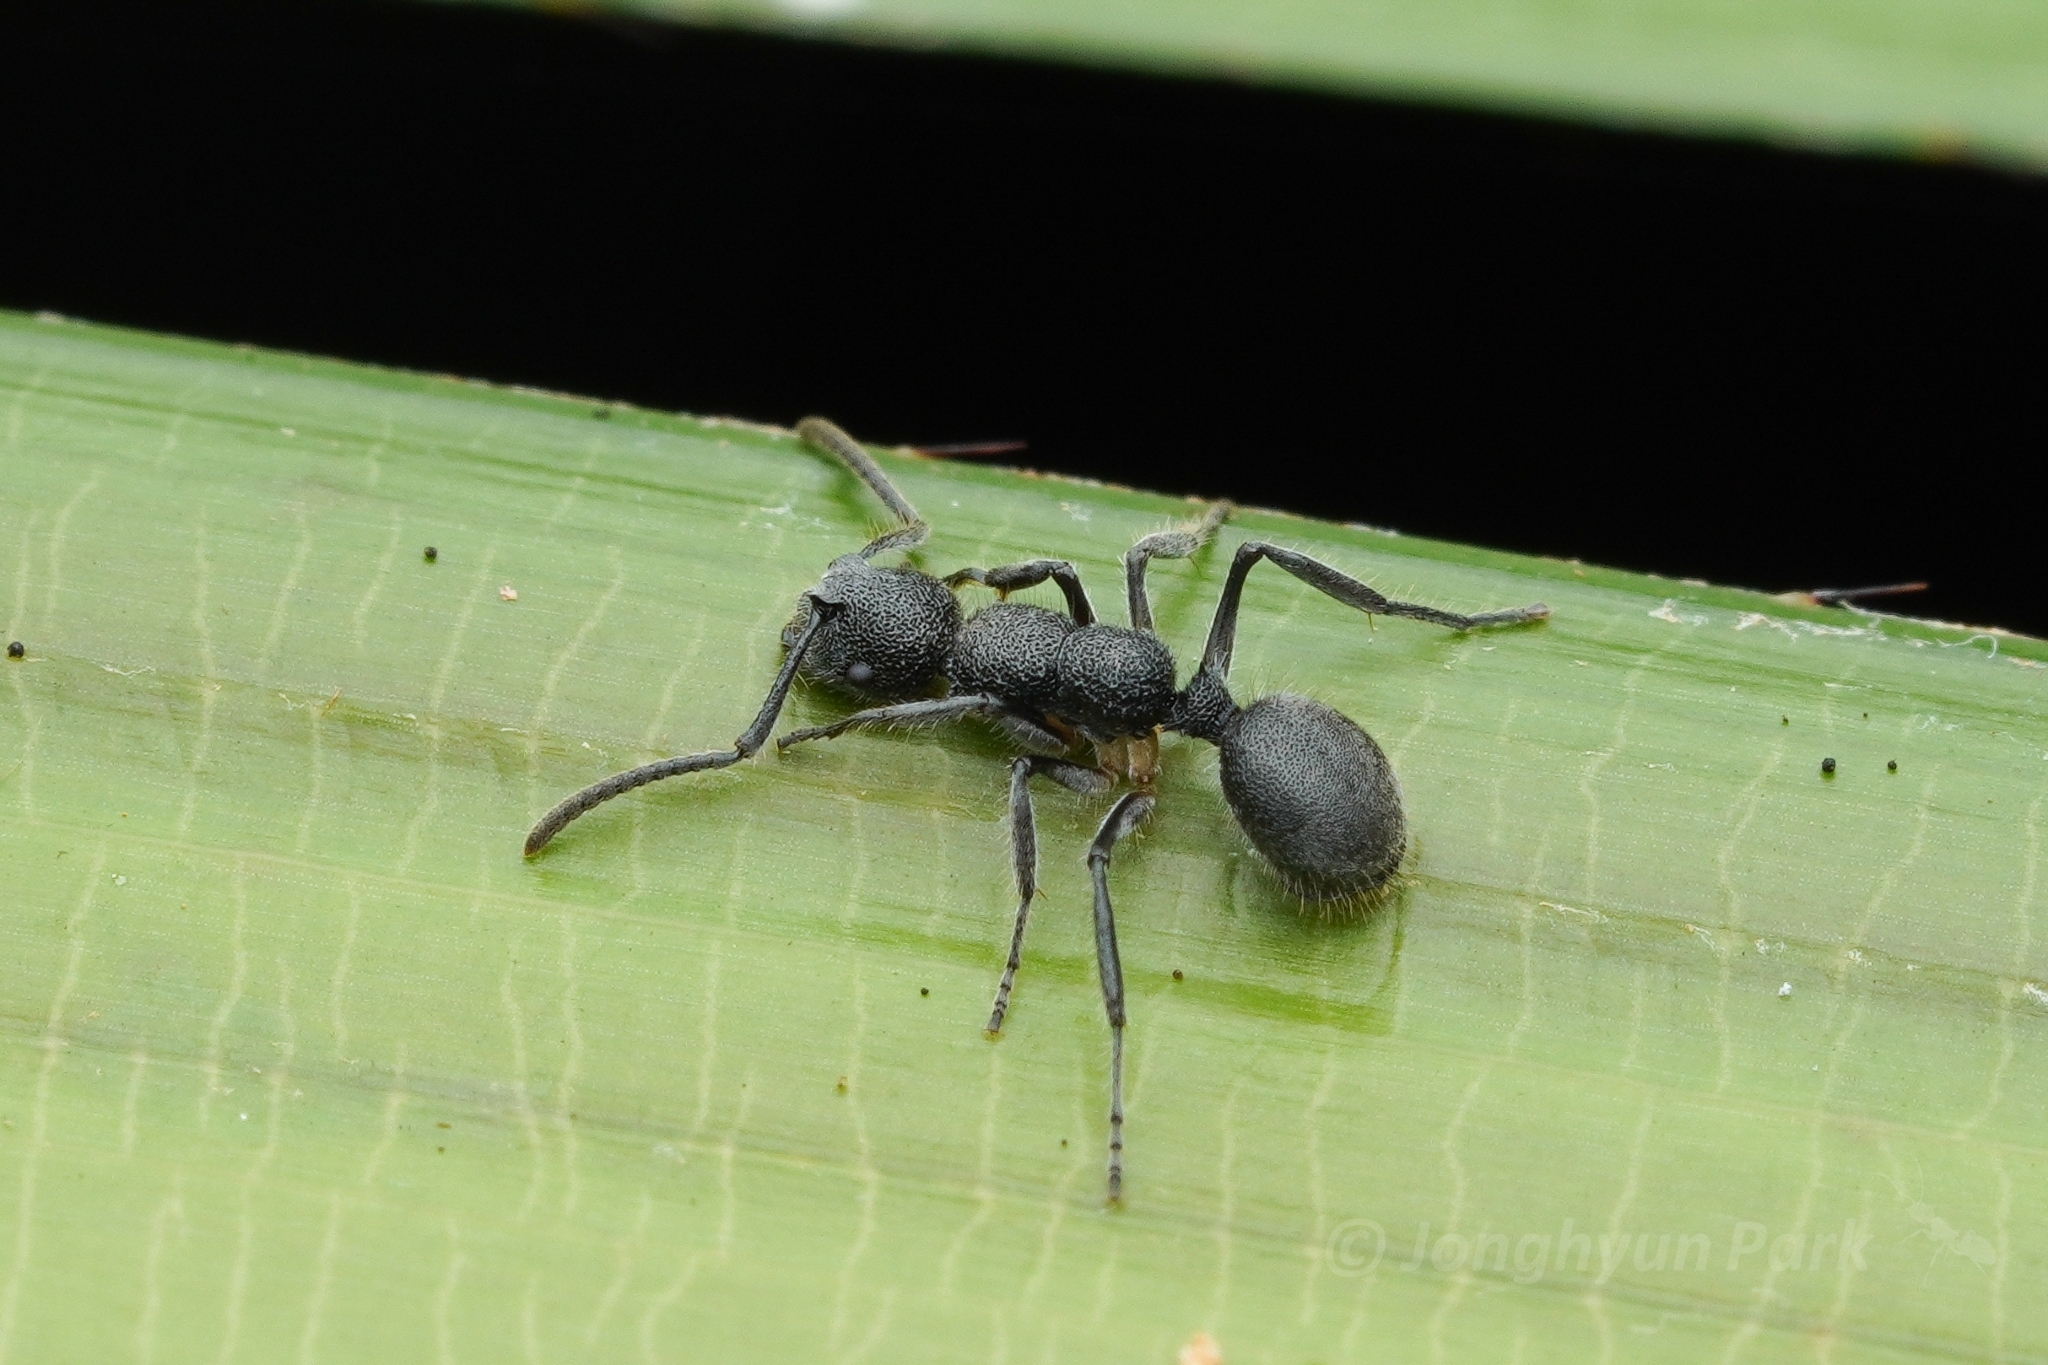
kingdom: Animalia
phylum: Arthropoda
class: Insecta
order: Hymenoptera
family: Formicidae
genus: Echinopla
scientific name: Echinopla angustata
